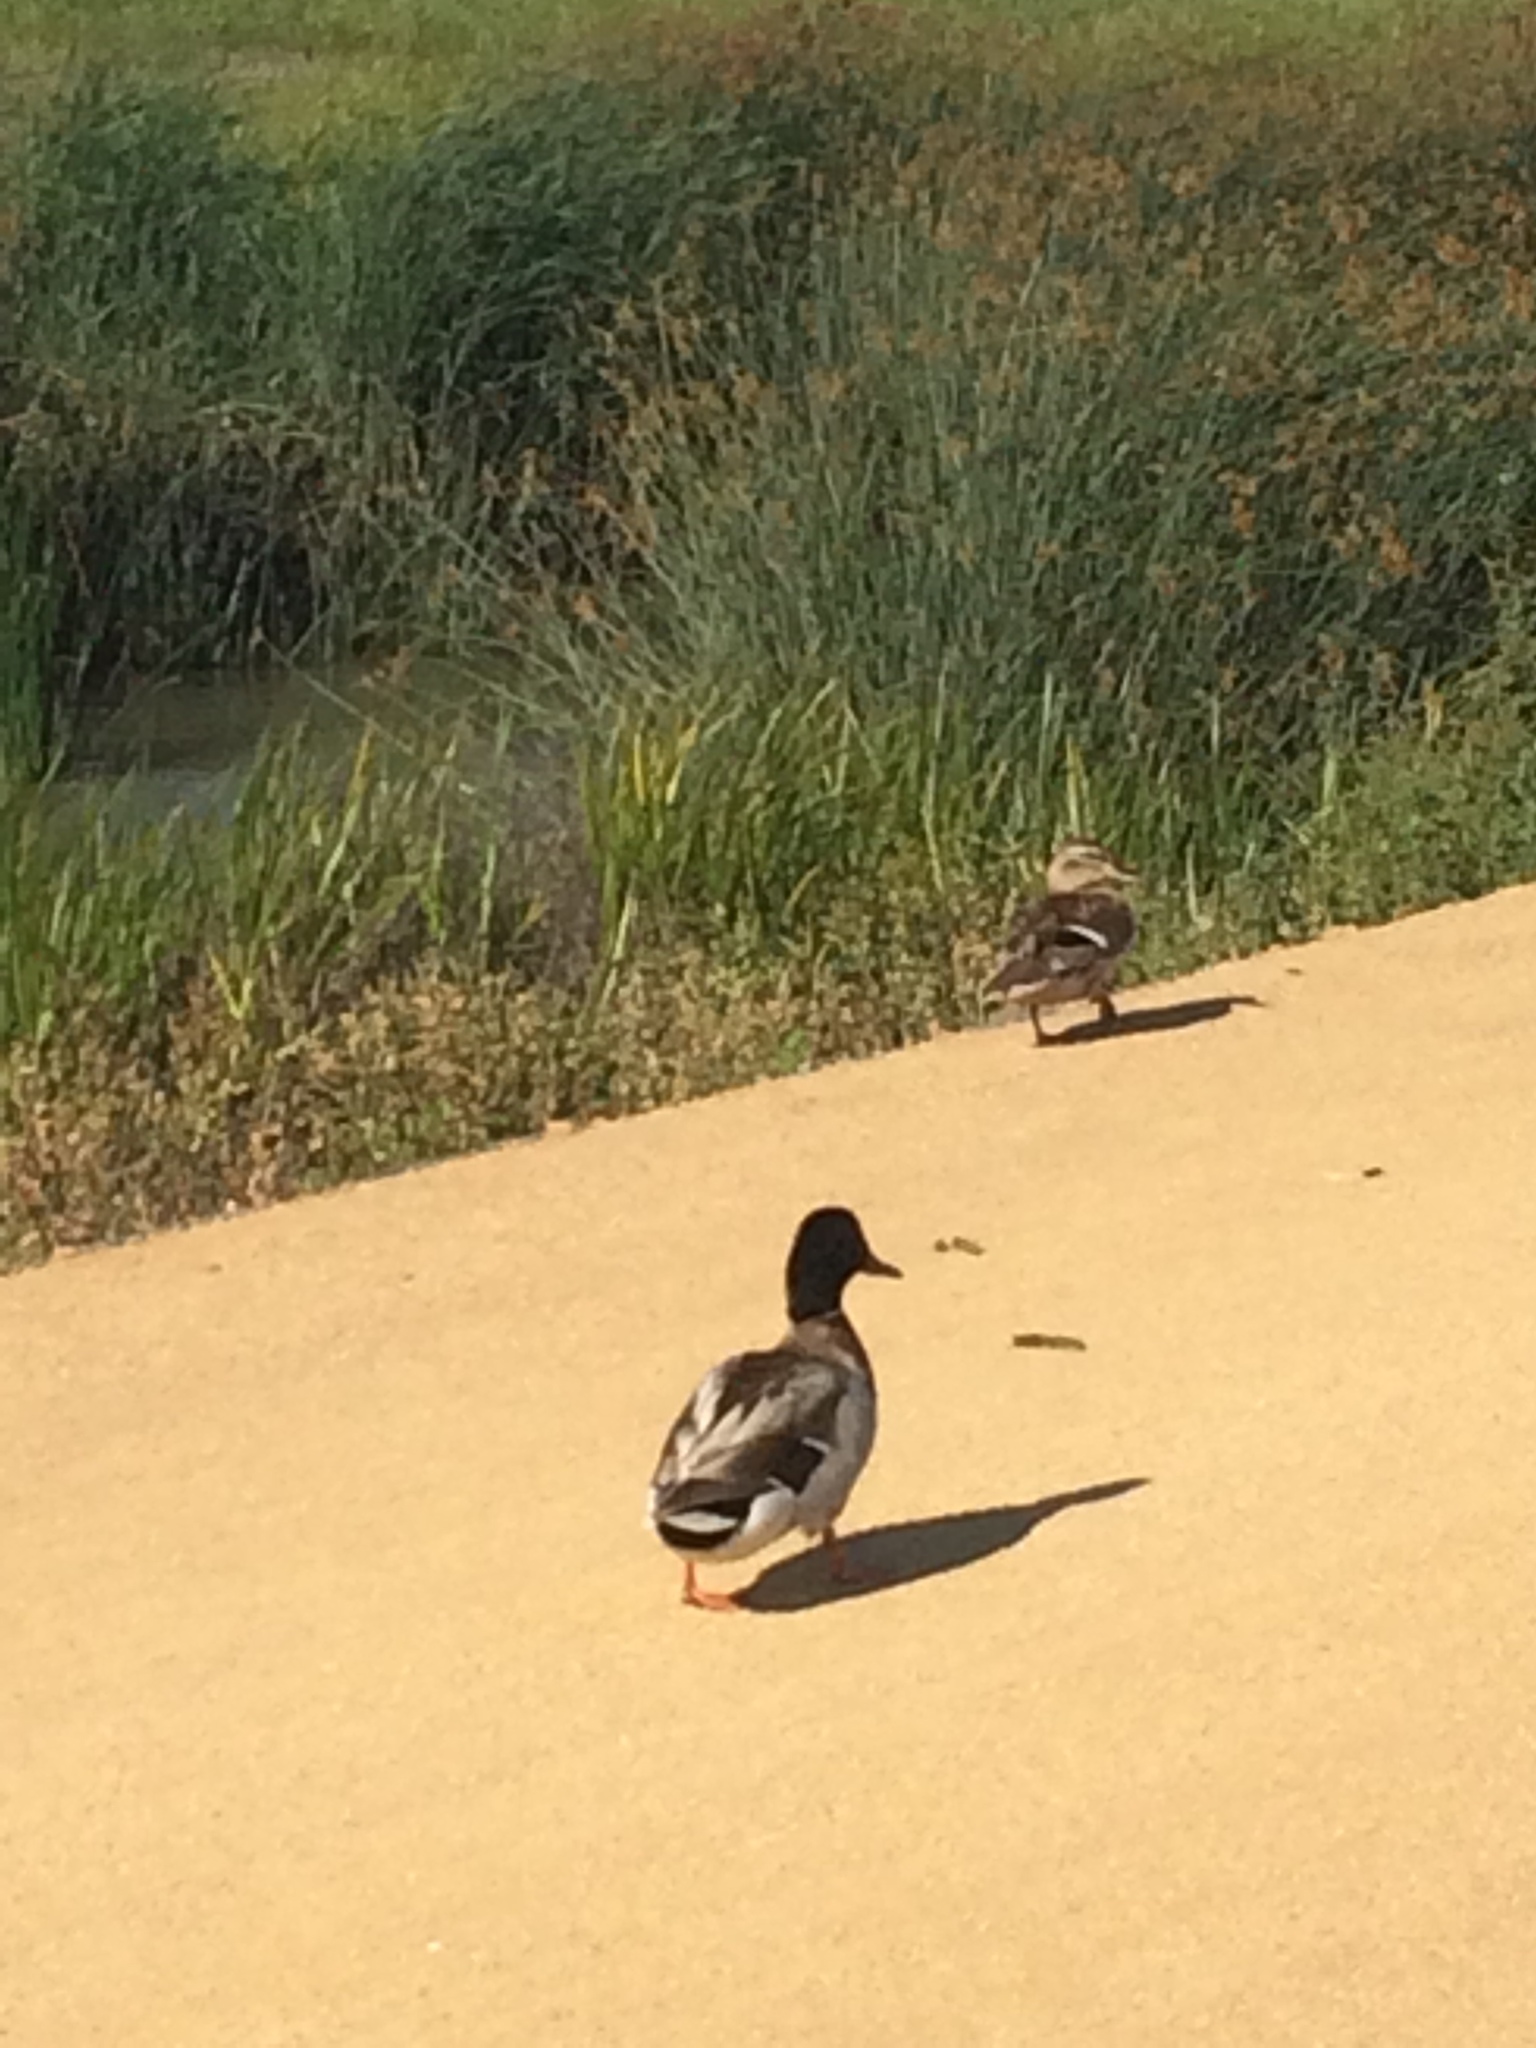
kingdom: Animalia
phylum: Chordata
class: Aves
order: Anseriformes
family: Anatidae
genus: Anas
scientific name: Anas platyrhynchos
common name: Mallard
